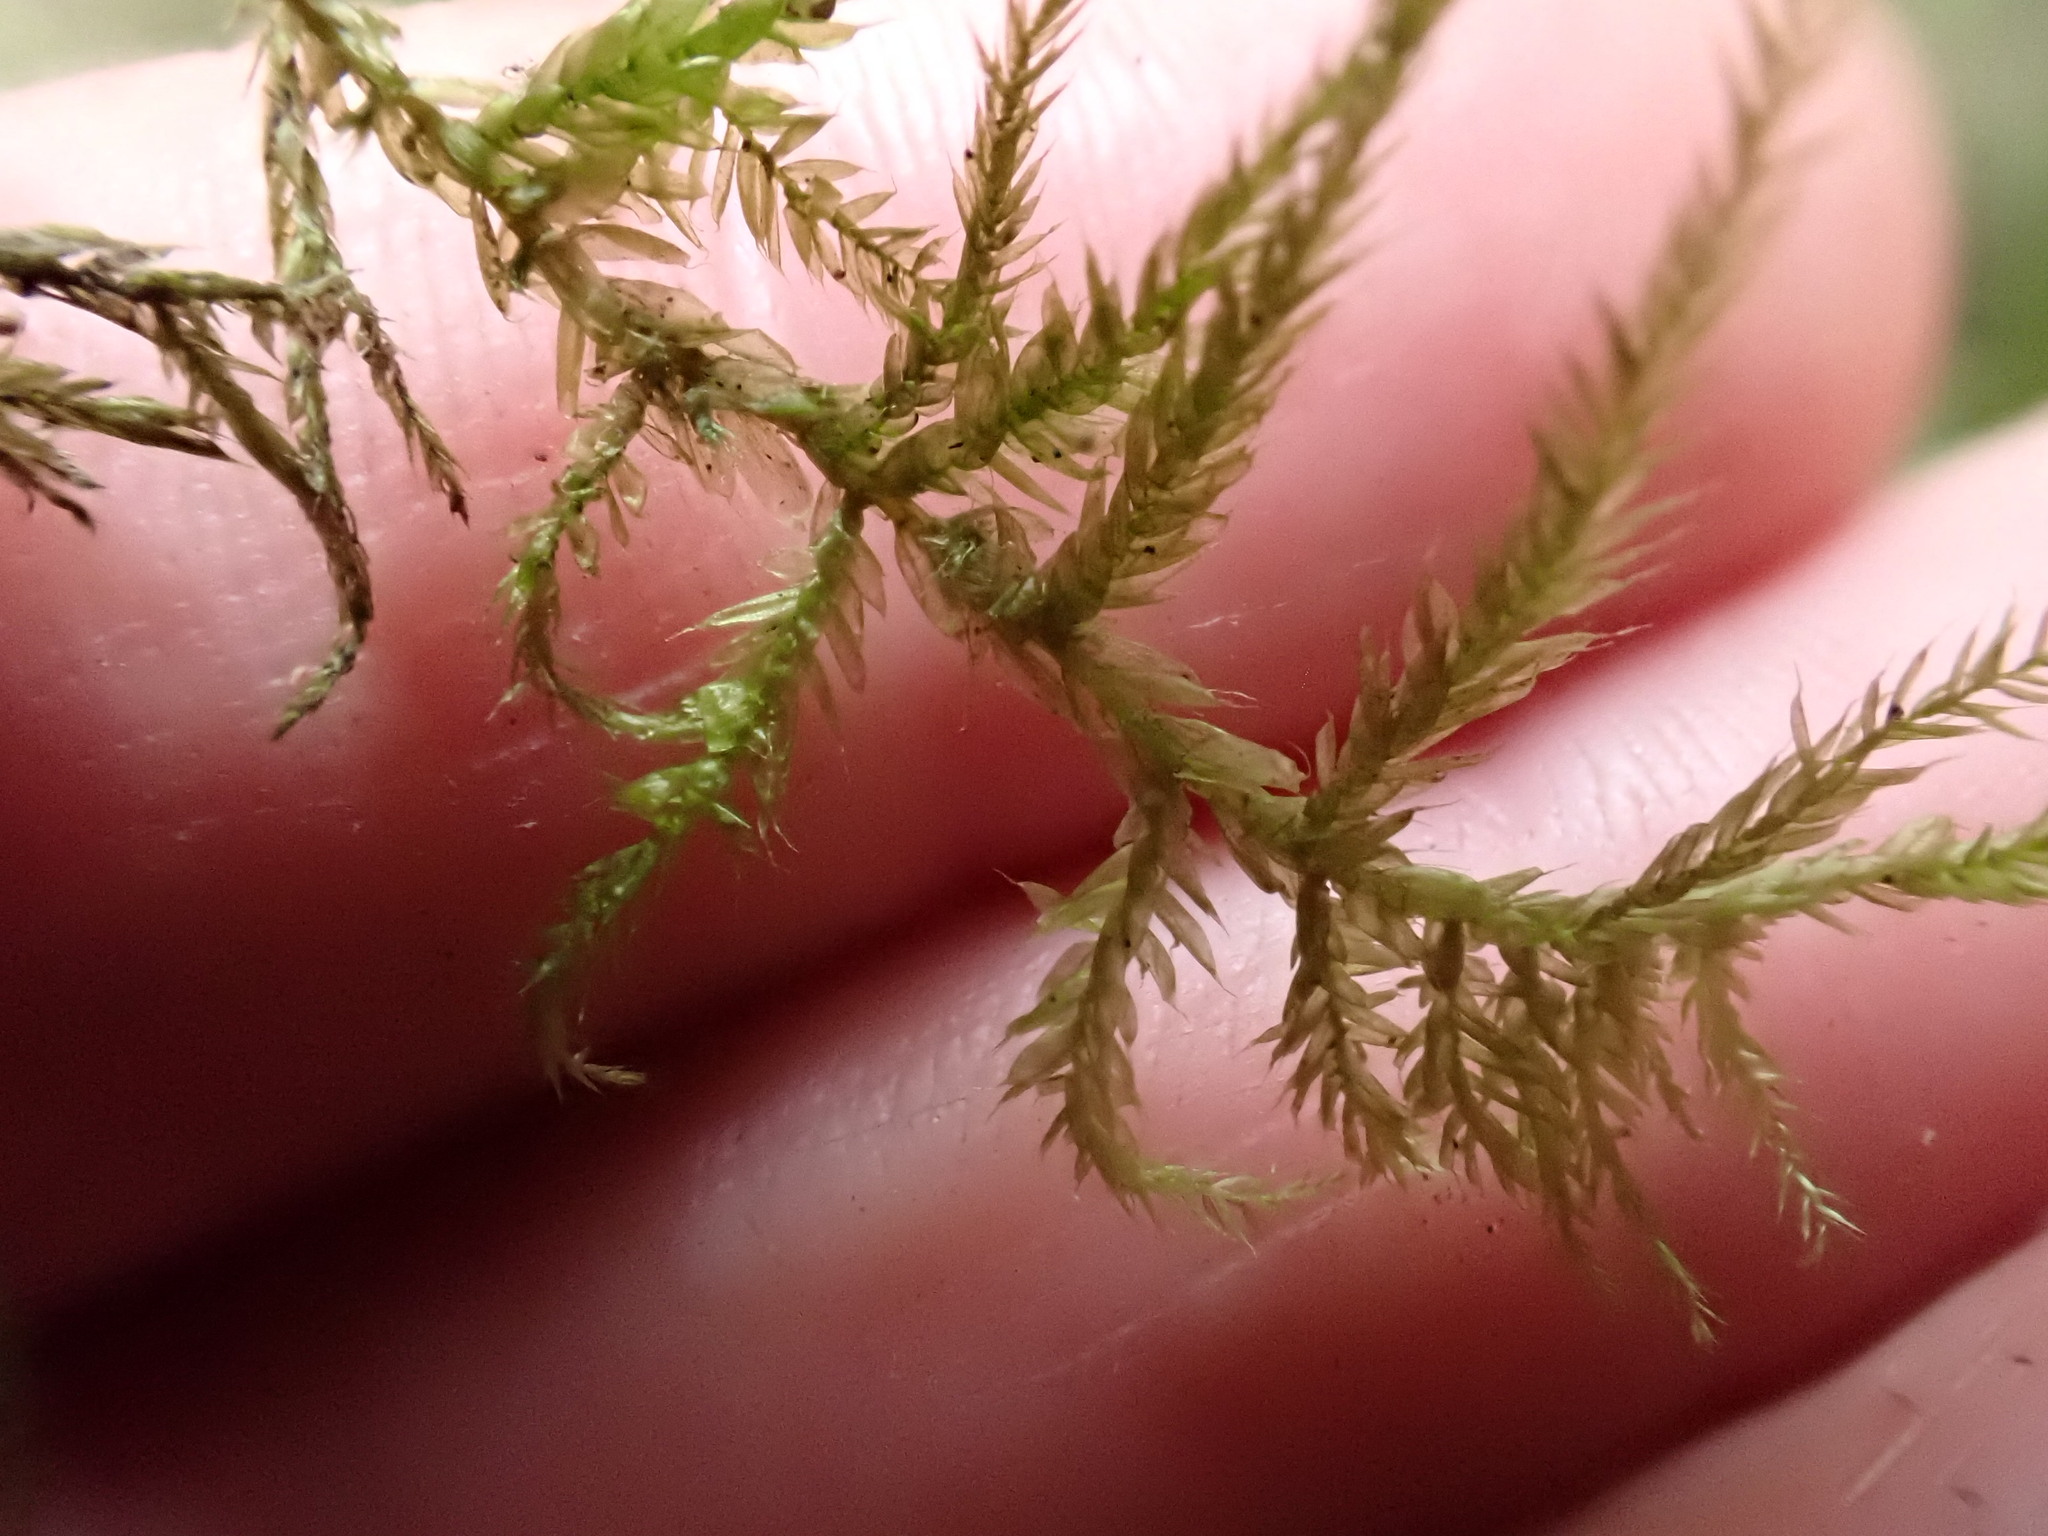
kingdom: Plantae
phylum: Bryophyta
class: Bryopsida
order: Hypnales
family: Thuidiaceae
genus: Abietinella
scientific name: Abietinella abietina
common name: Wiry fern moss
